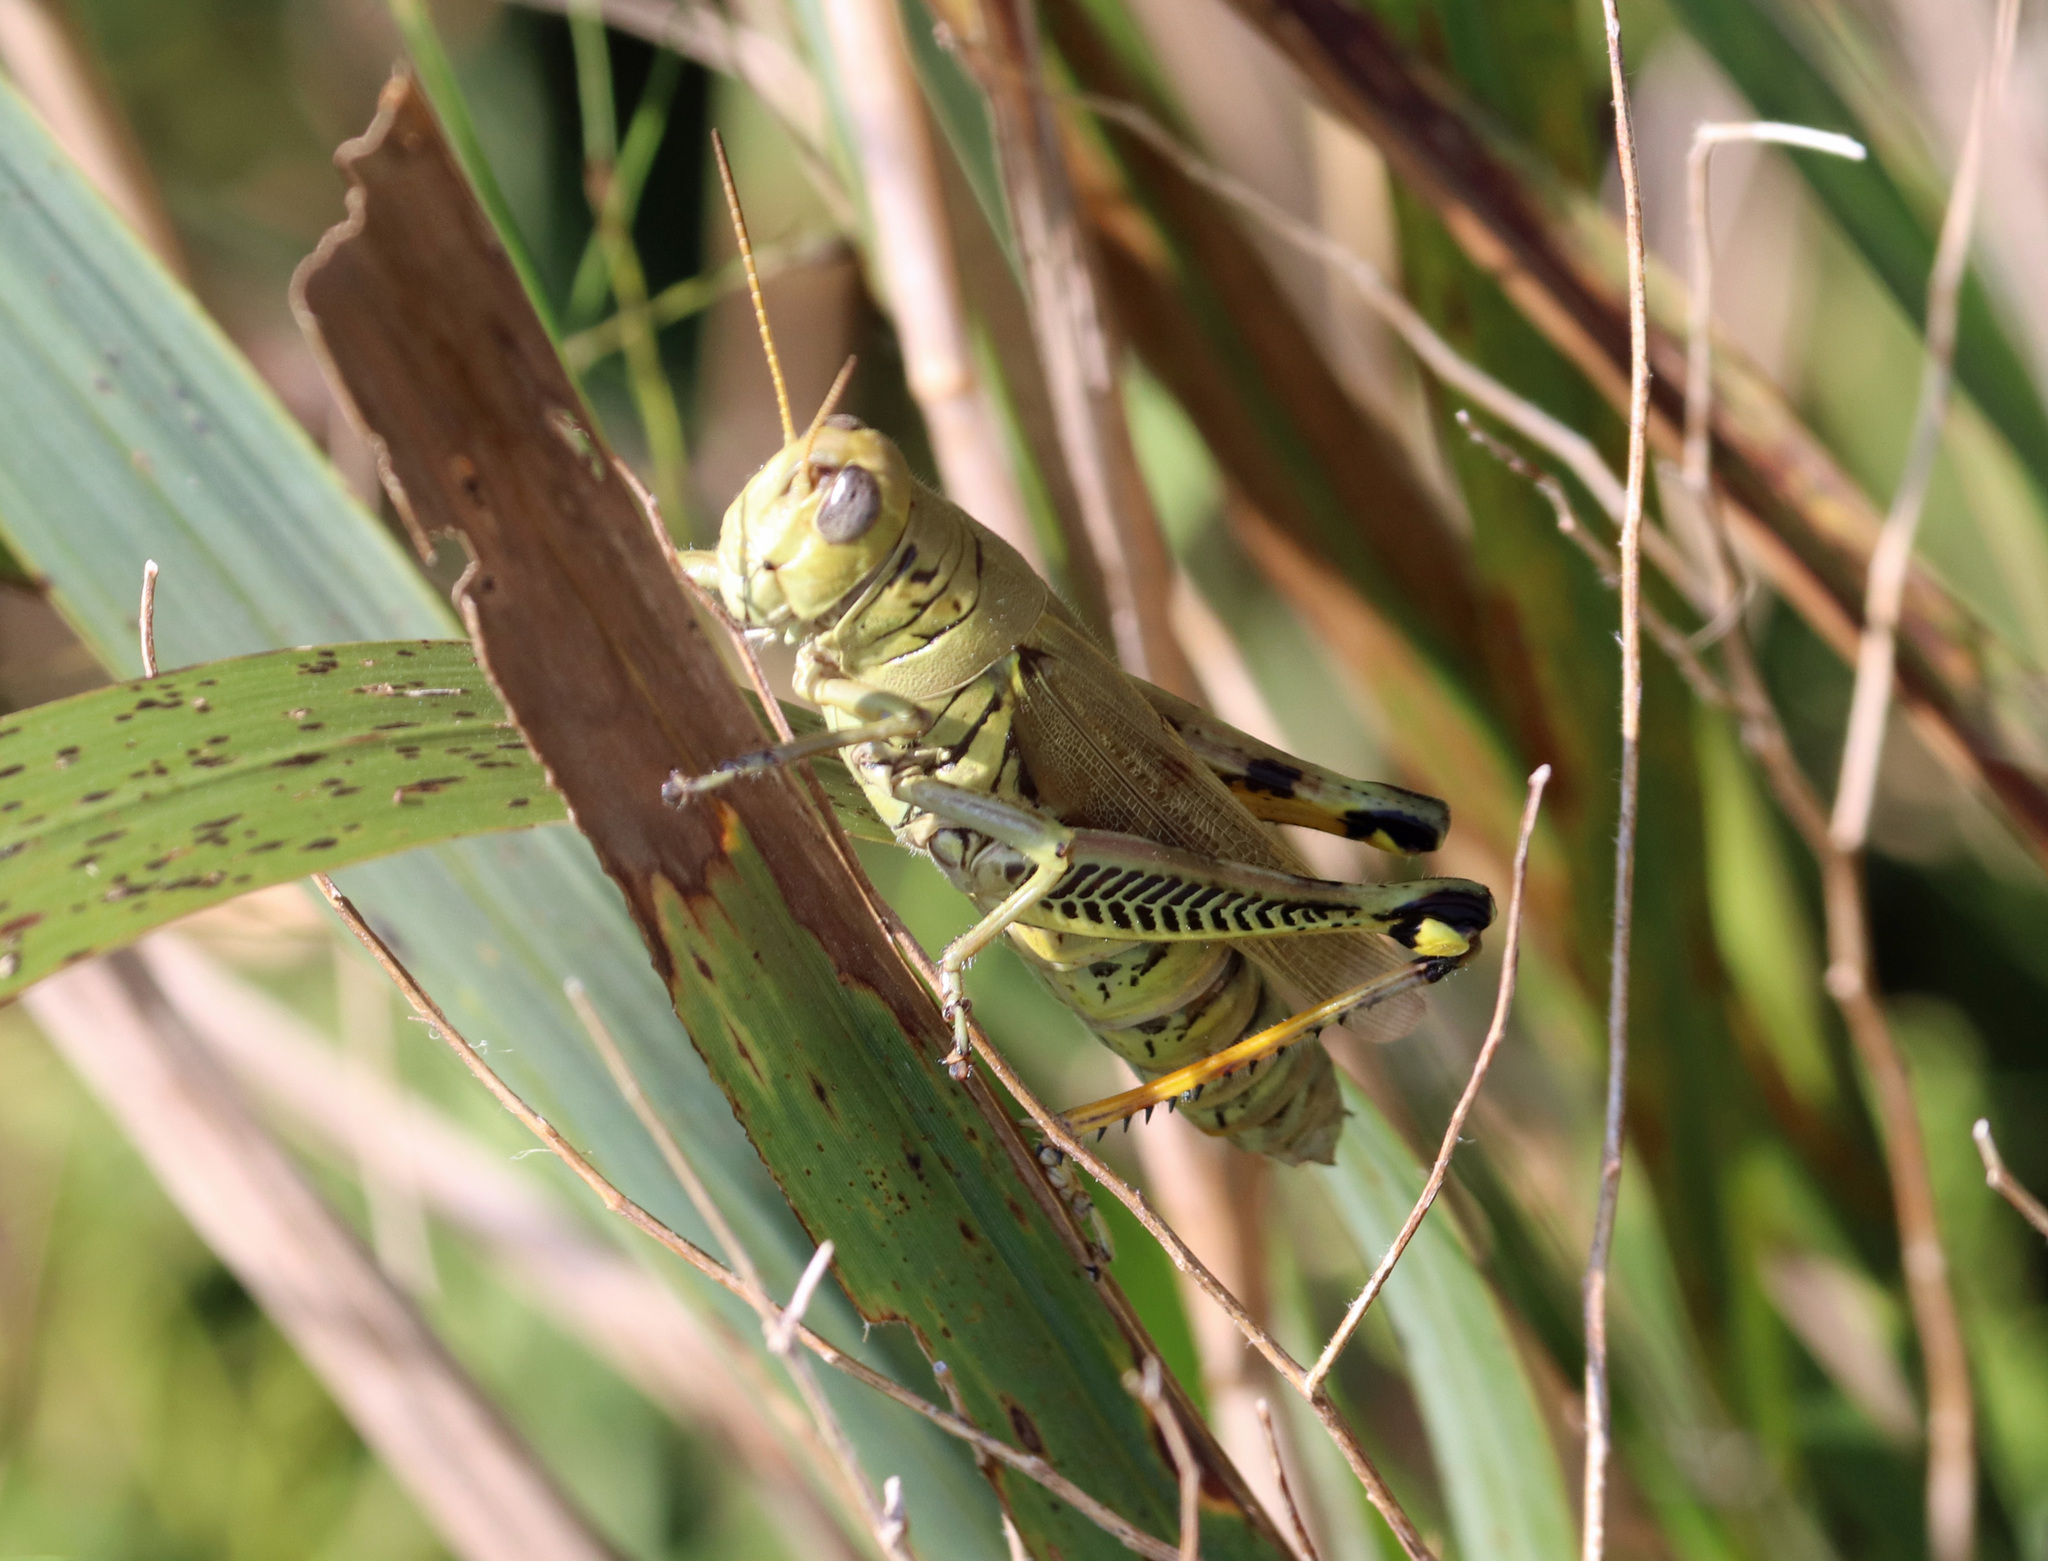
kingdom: Animalia
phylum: Arthropoda
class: Insecta
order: Orthoptera
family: Acrididae
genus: Melanoplus
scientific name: Melanoplus differentialis
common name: Differential grasshopper
